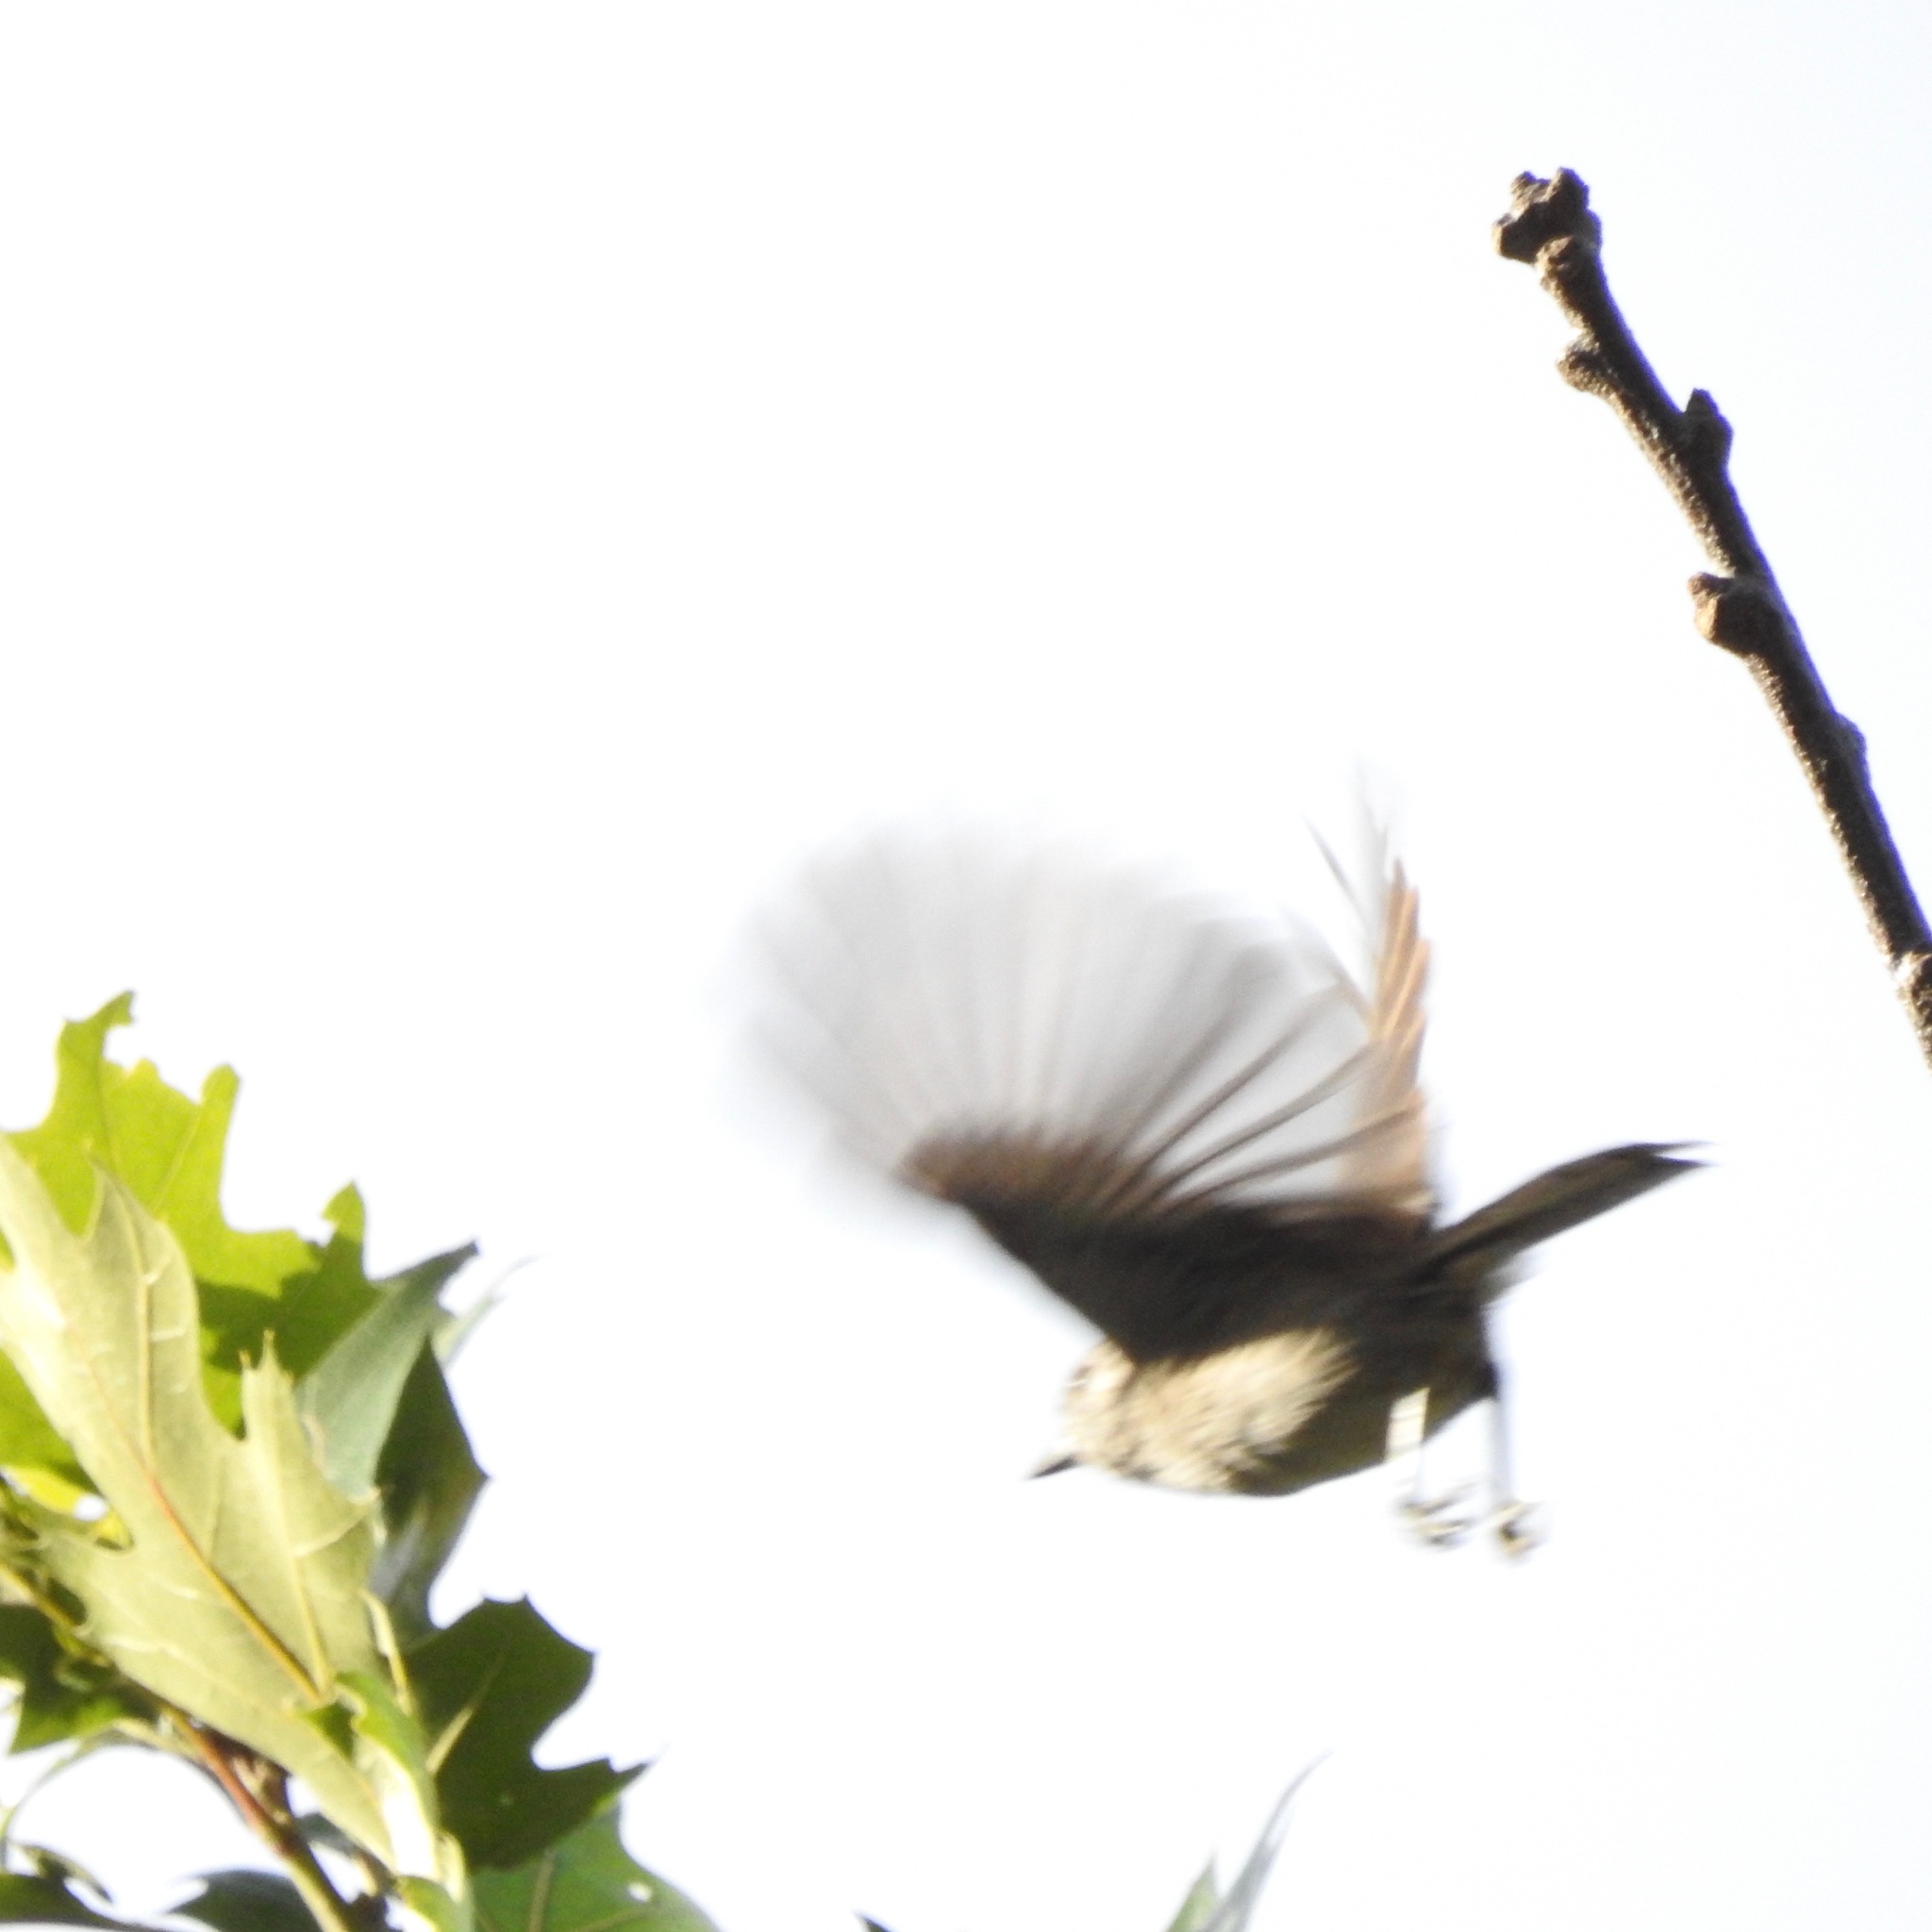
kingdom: Animalia
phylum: Chordata
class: Aves
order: Passeriformes
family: Paridae
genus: Baeolophus
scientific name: Baeolophus inornatus
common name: Oak titmouse
